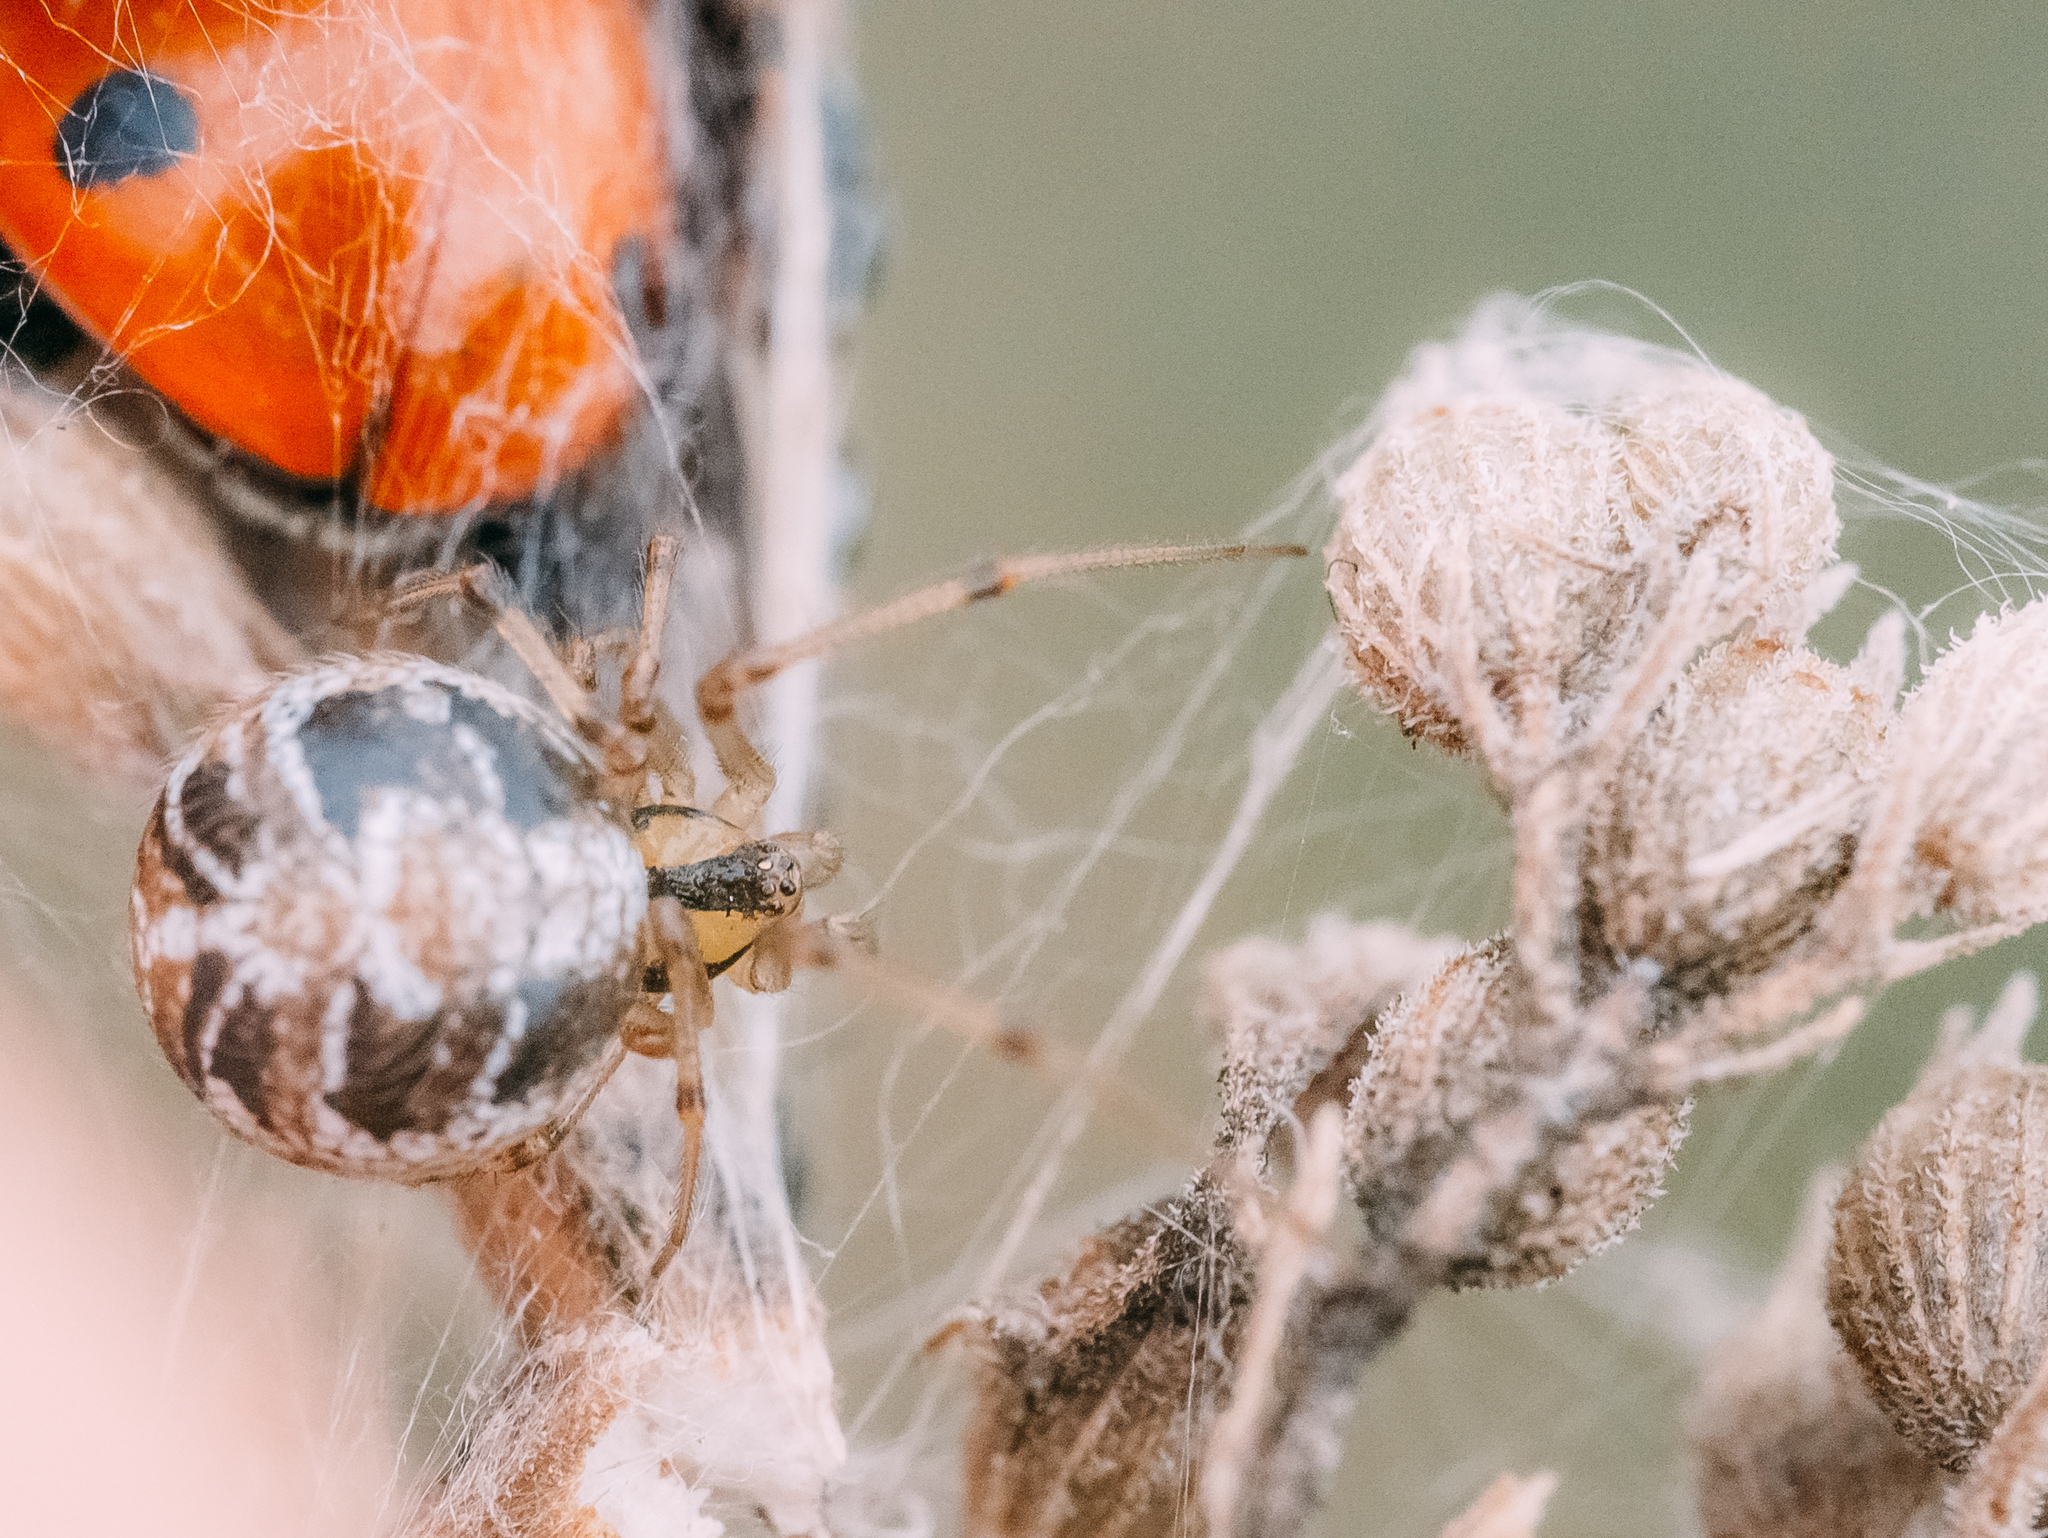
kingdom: Animalia
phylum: Arthropoda
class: Arachnida
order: Araneae
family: Theridiidae
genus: Phylloneta
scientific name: Phylloneta impressa
